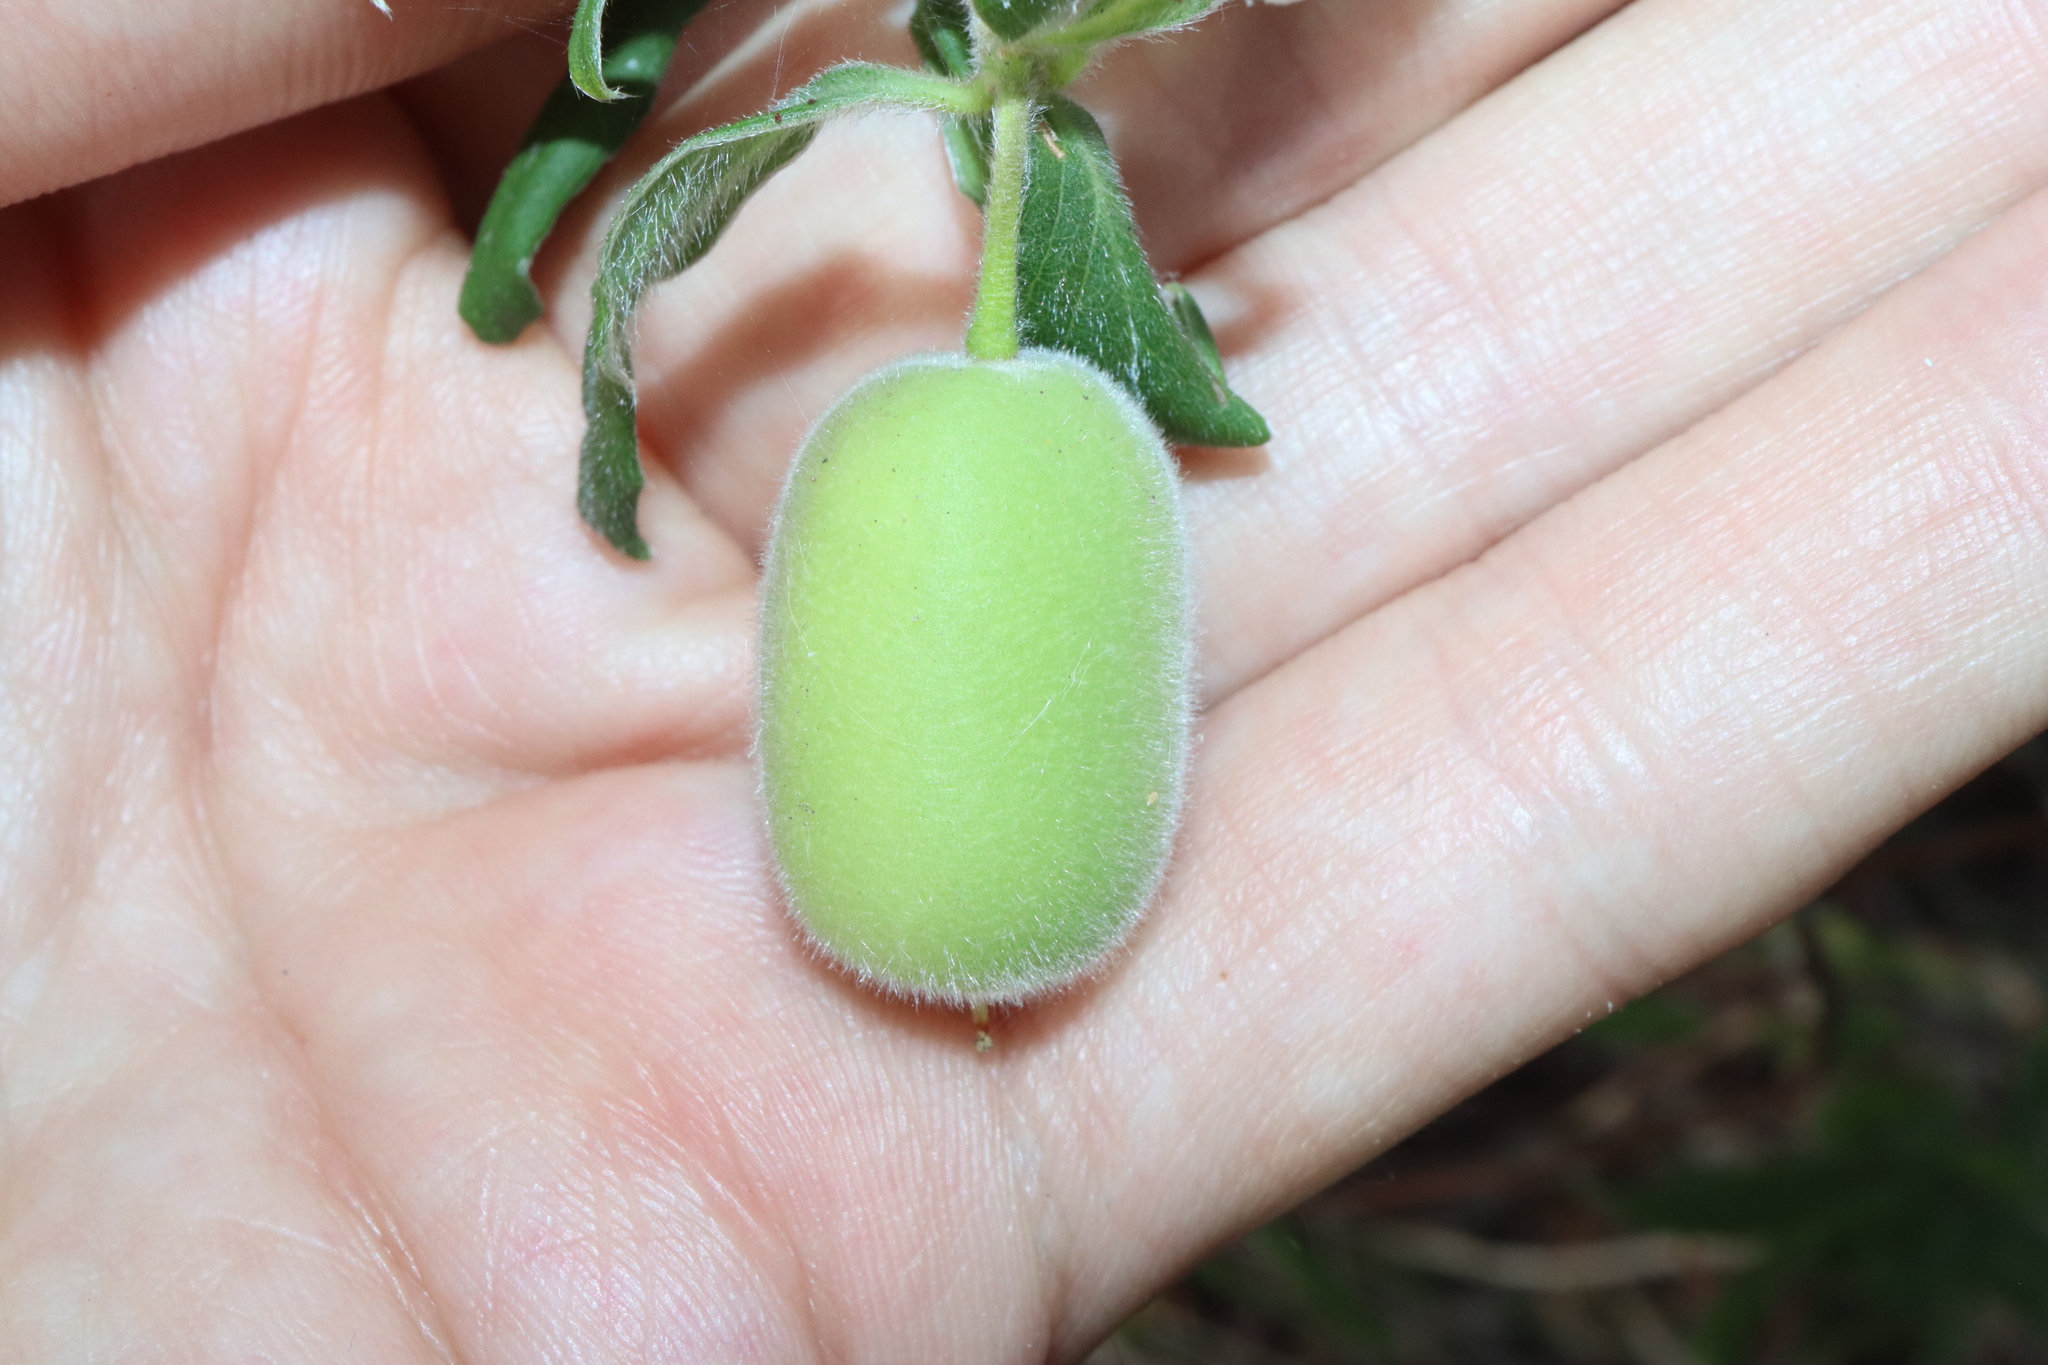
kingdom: Plantae
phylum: Tracheophyta
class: Magnoliopsida
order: Apiales
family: Pittosporaceae
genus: Billardiera
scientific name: Billardiera scandens
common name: Apple-berry
